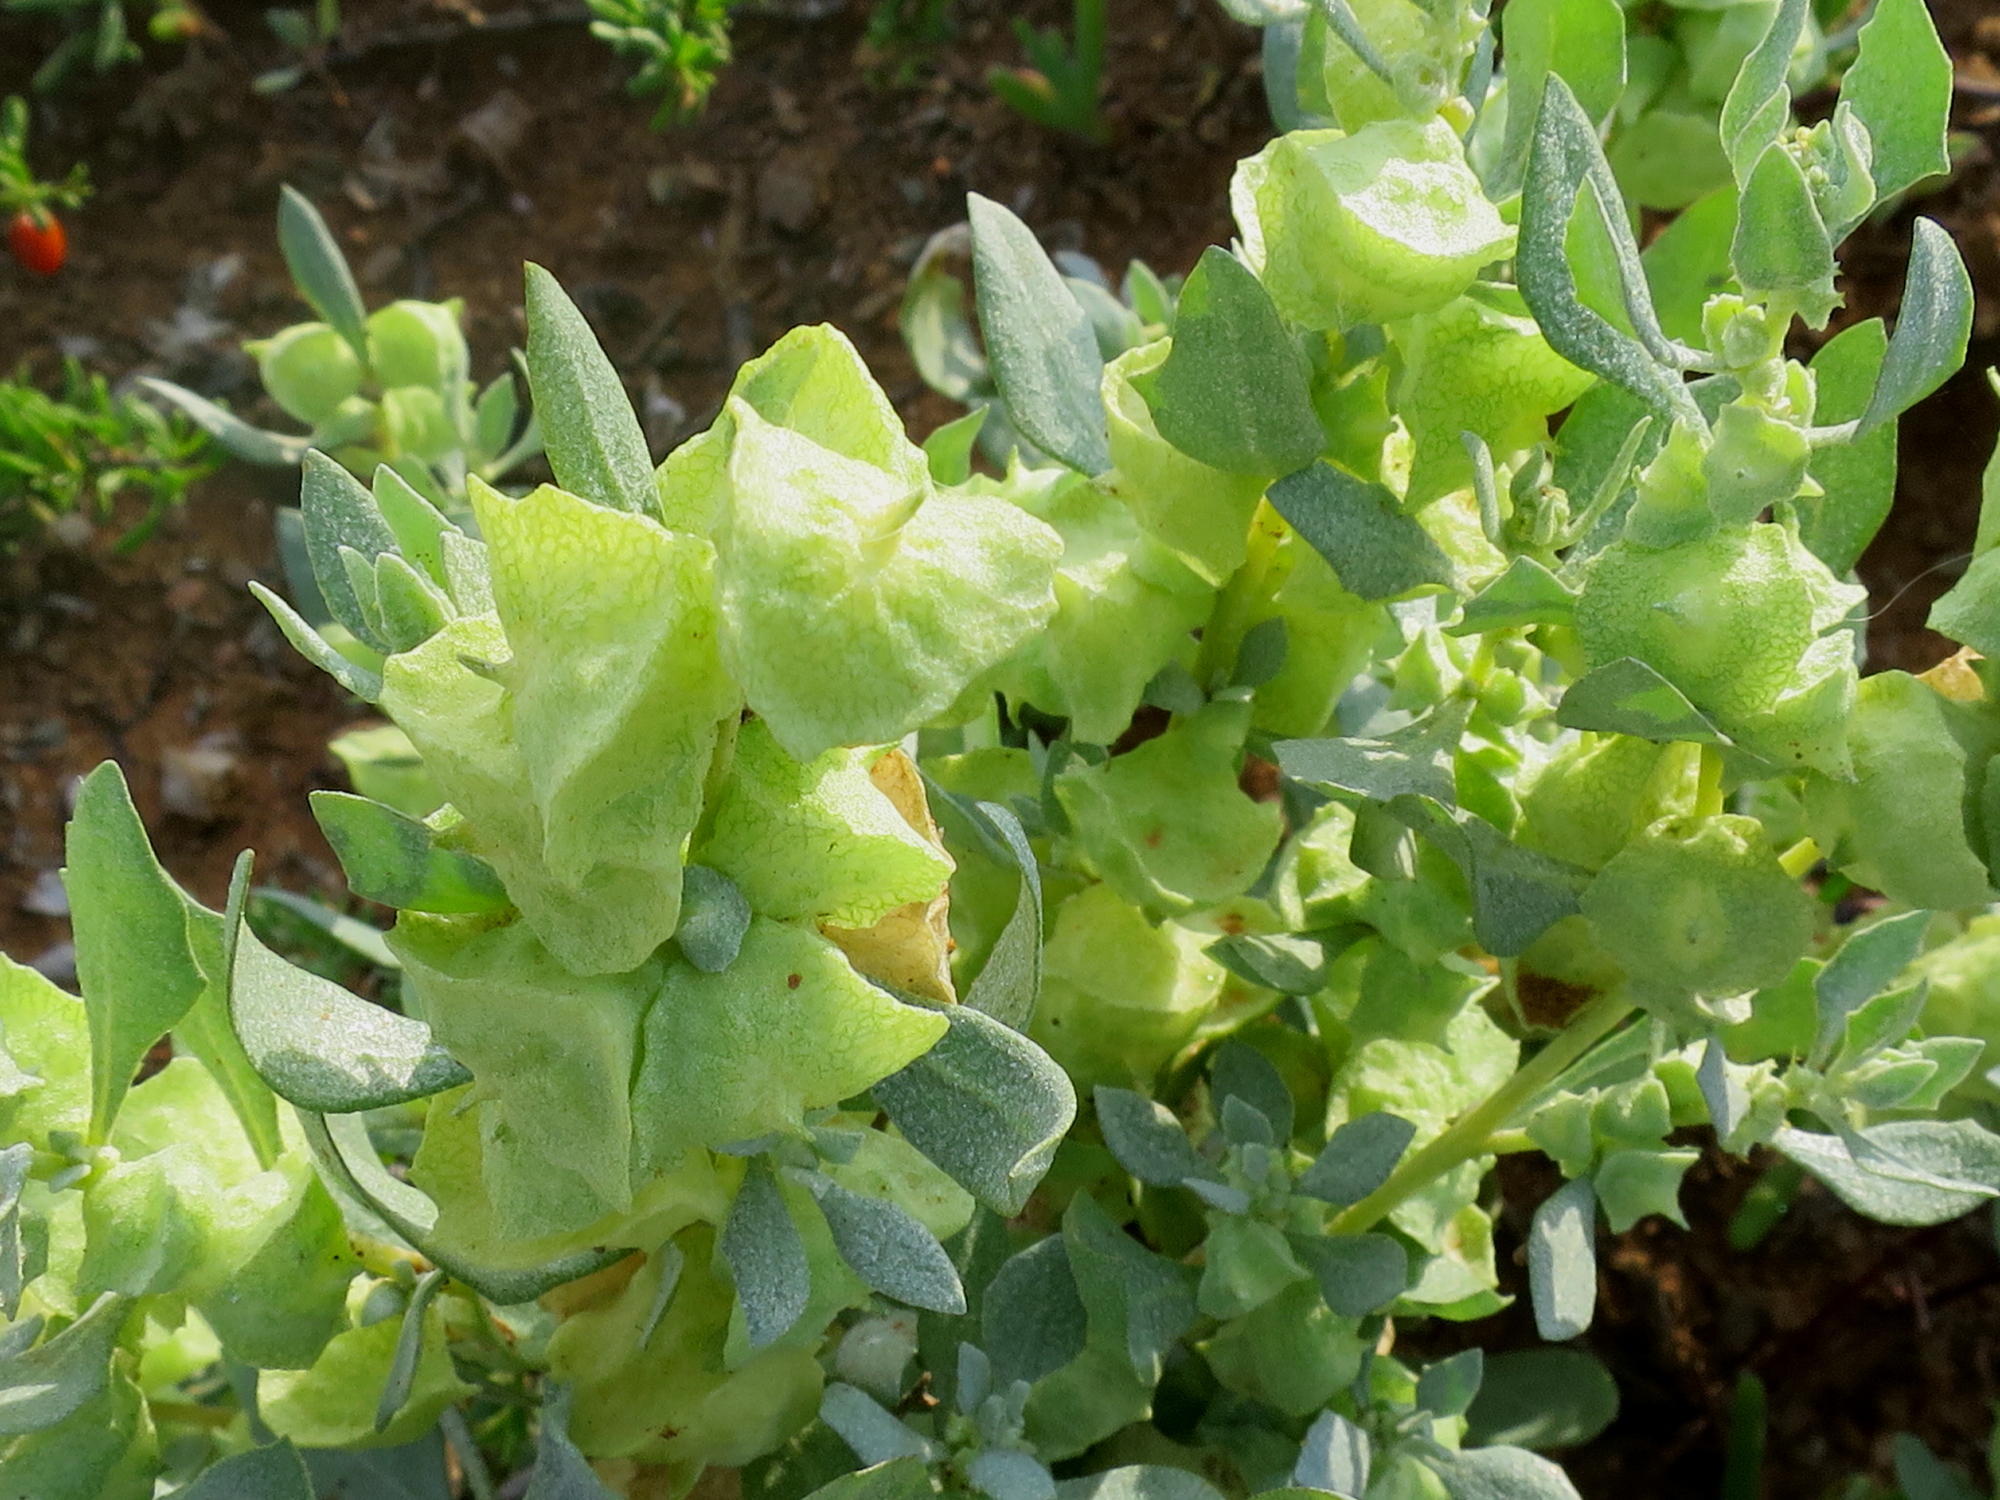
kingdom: Plantae
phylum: Tracheophyta
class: Magnoliopsida
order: Caryophyllales
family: Amaranthaceae
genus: Atriplex
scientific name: Atriplex lindleyi
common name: Lindley's saltbush
